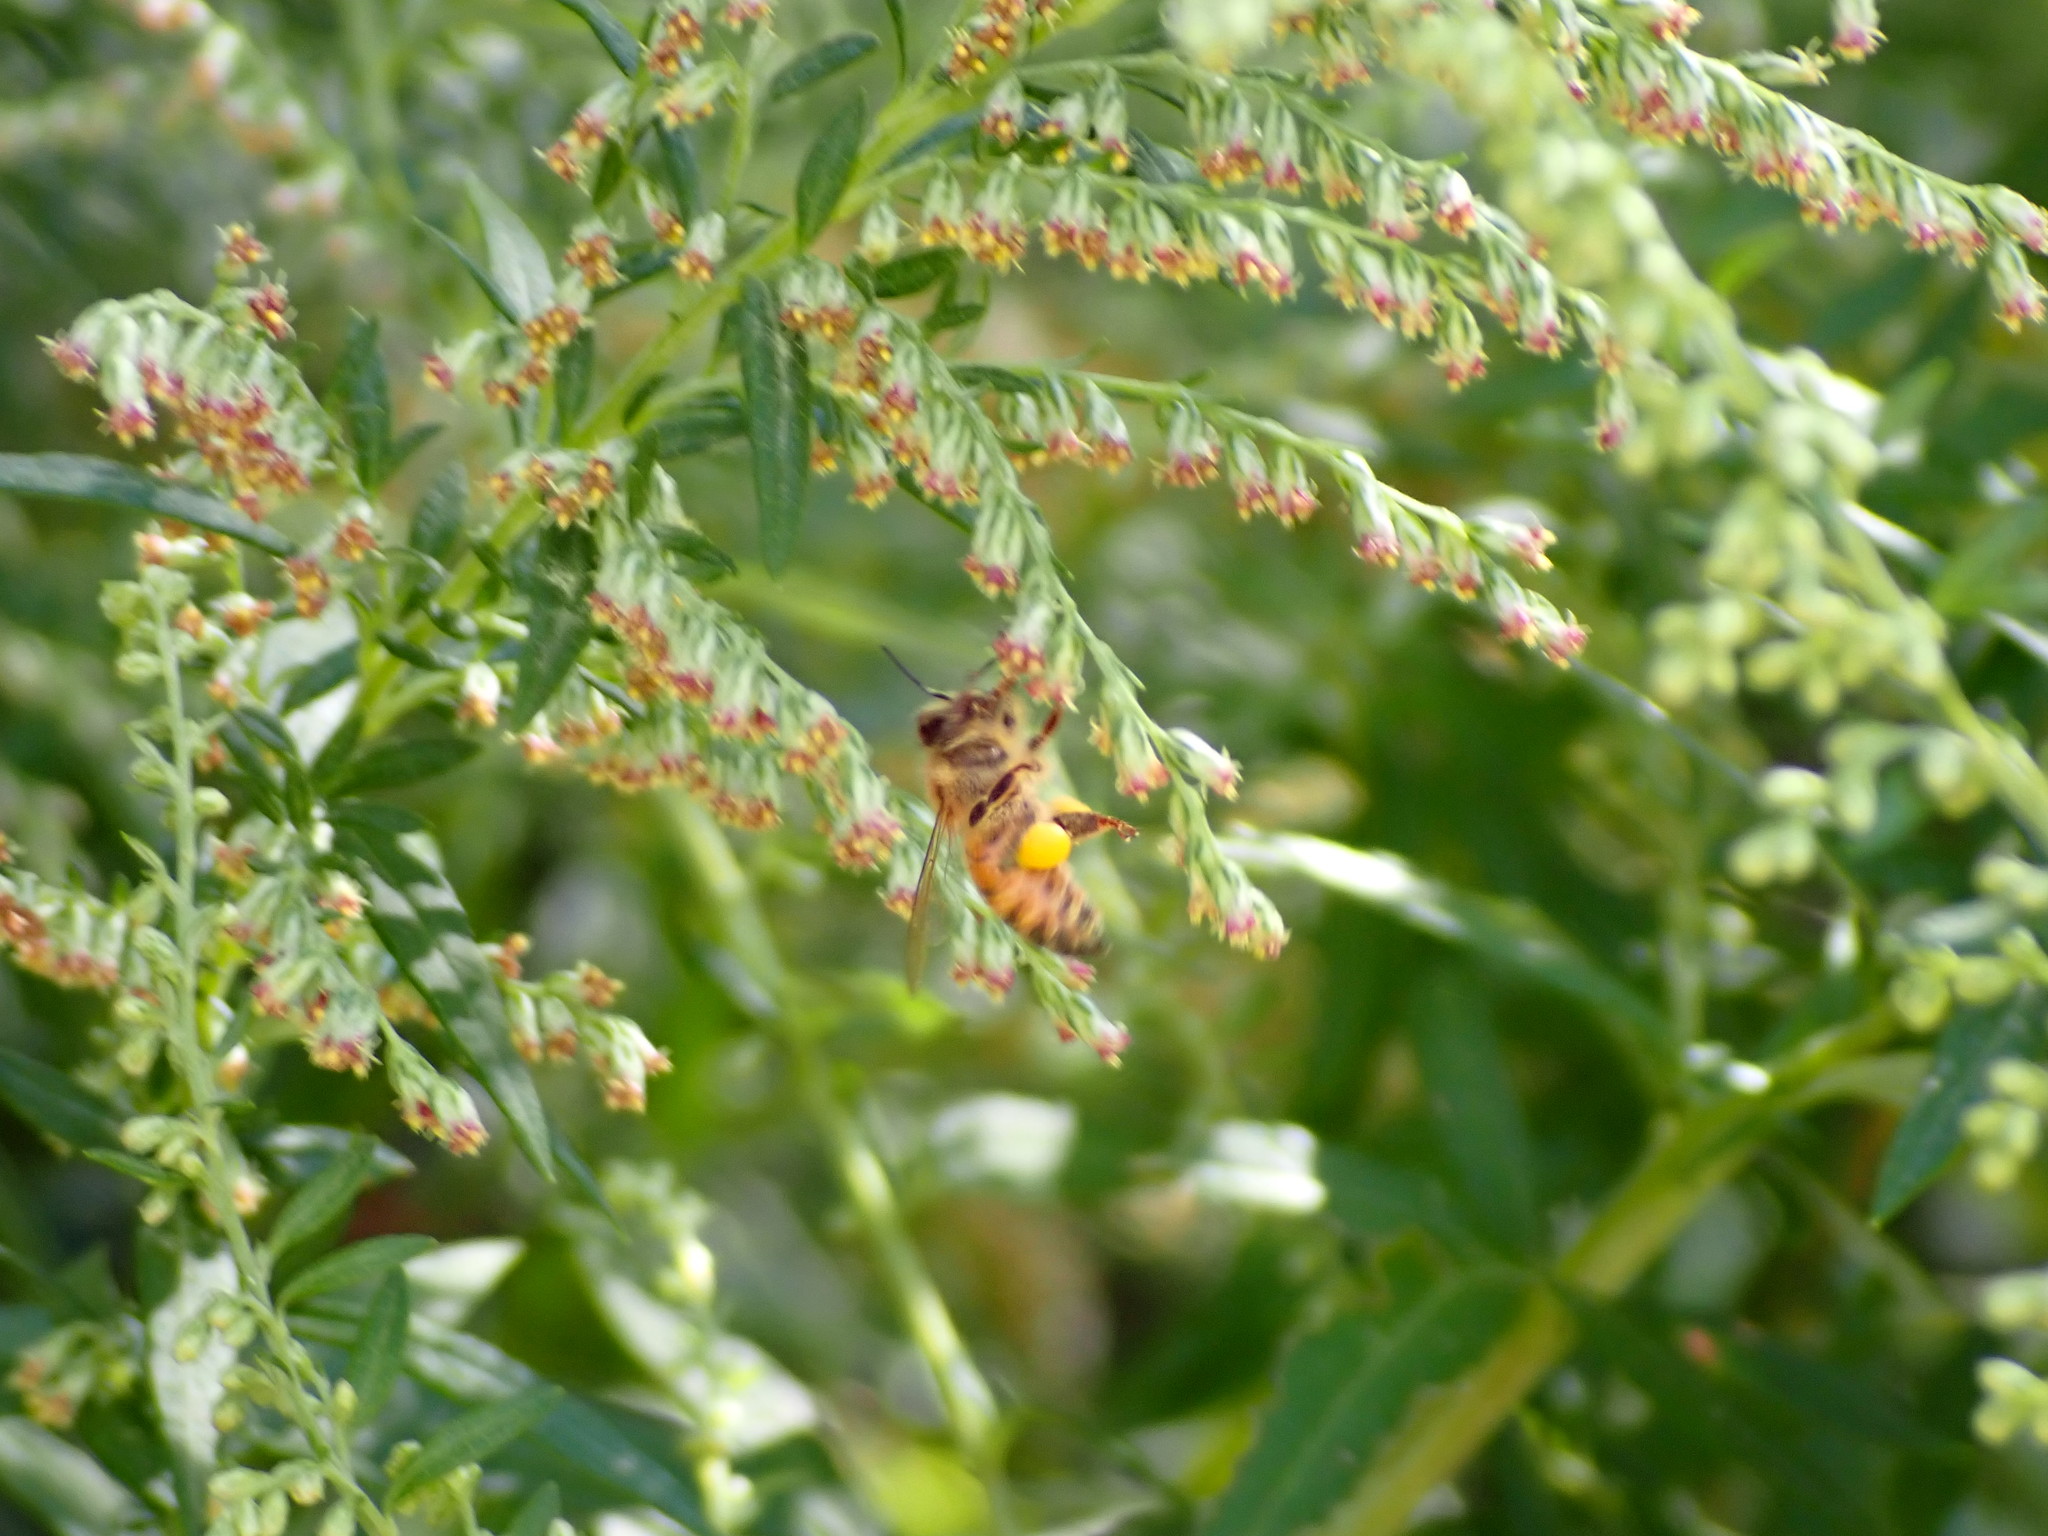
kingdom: Animalia
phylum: Arthropoda
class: Insecta
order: Hymenoptera
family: Apidae
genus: Apis
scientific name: Apis mellifera
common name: Honey bee
